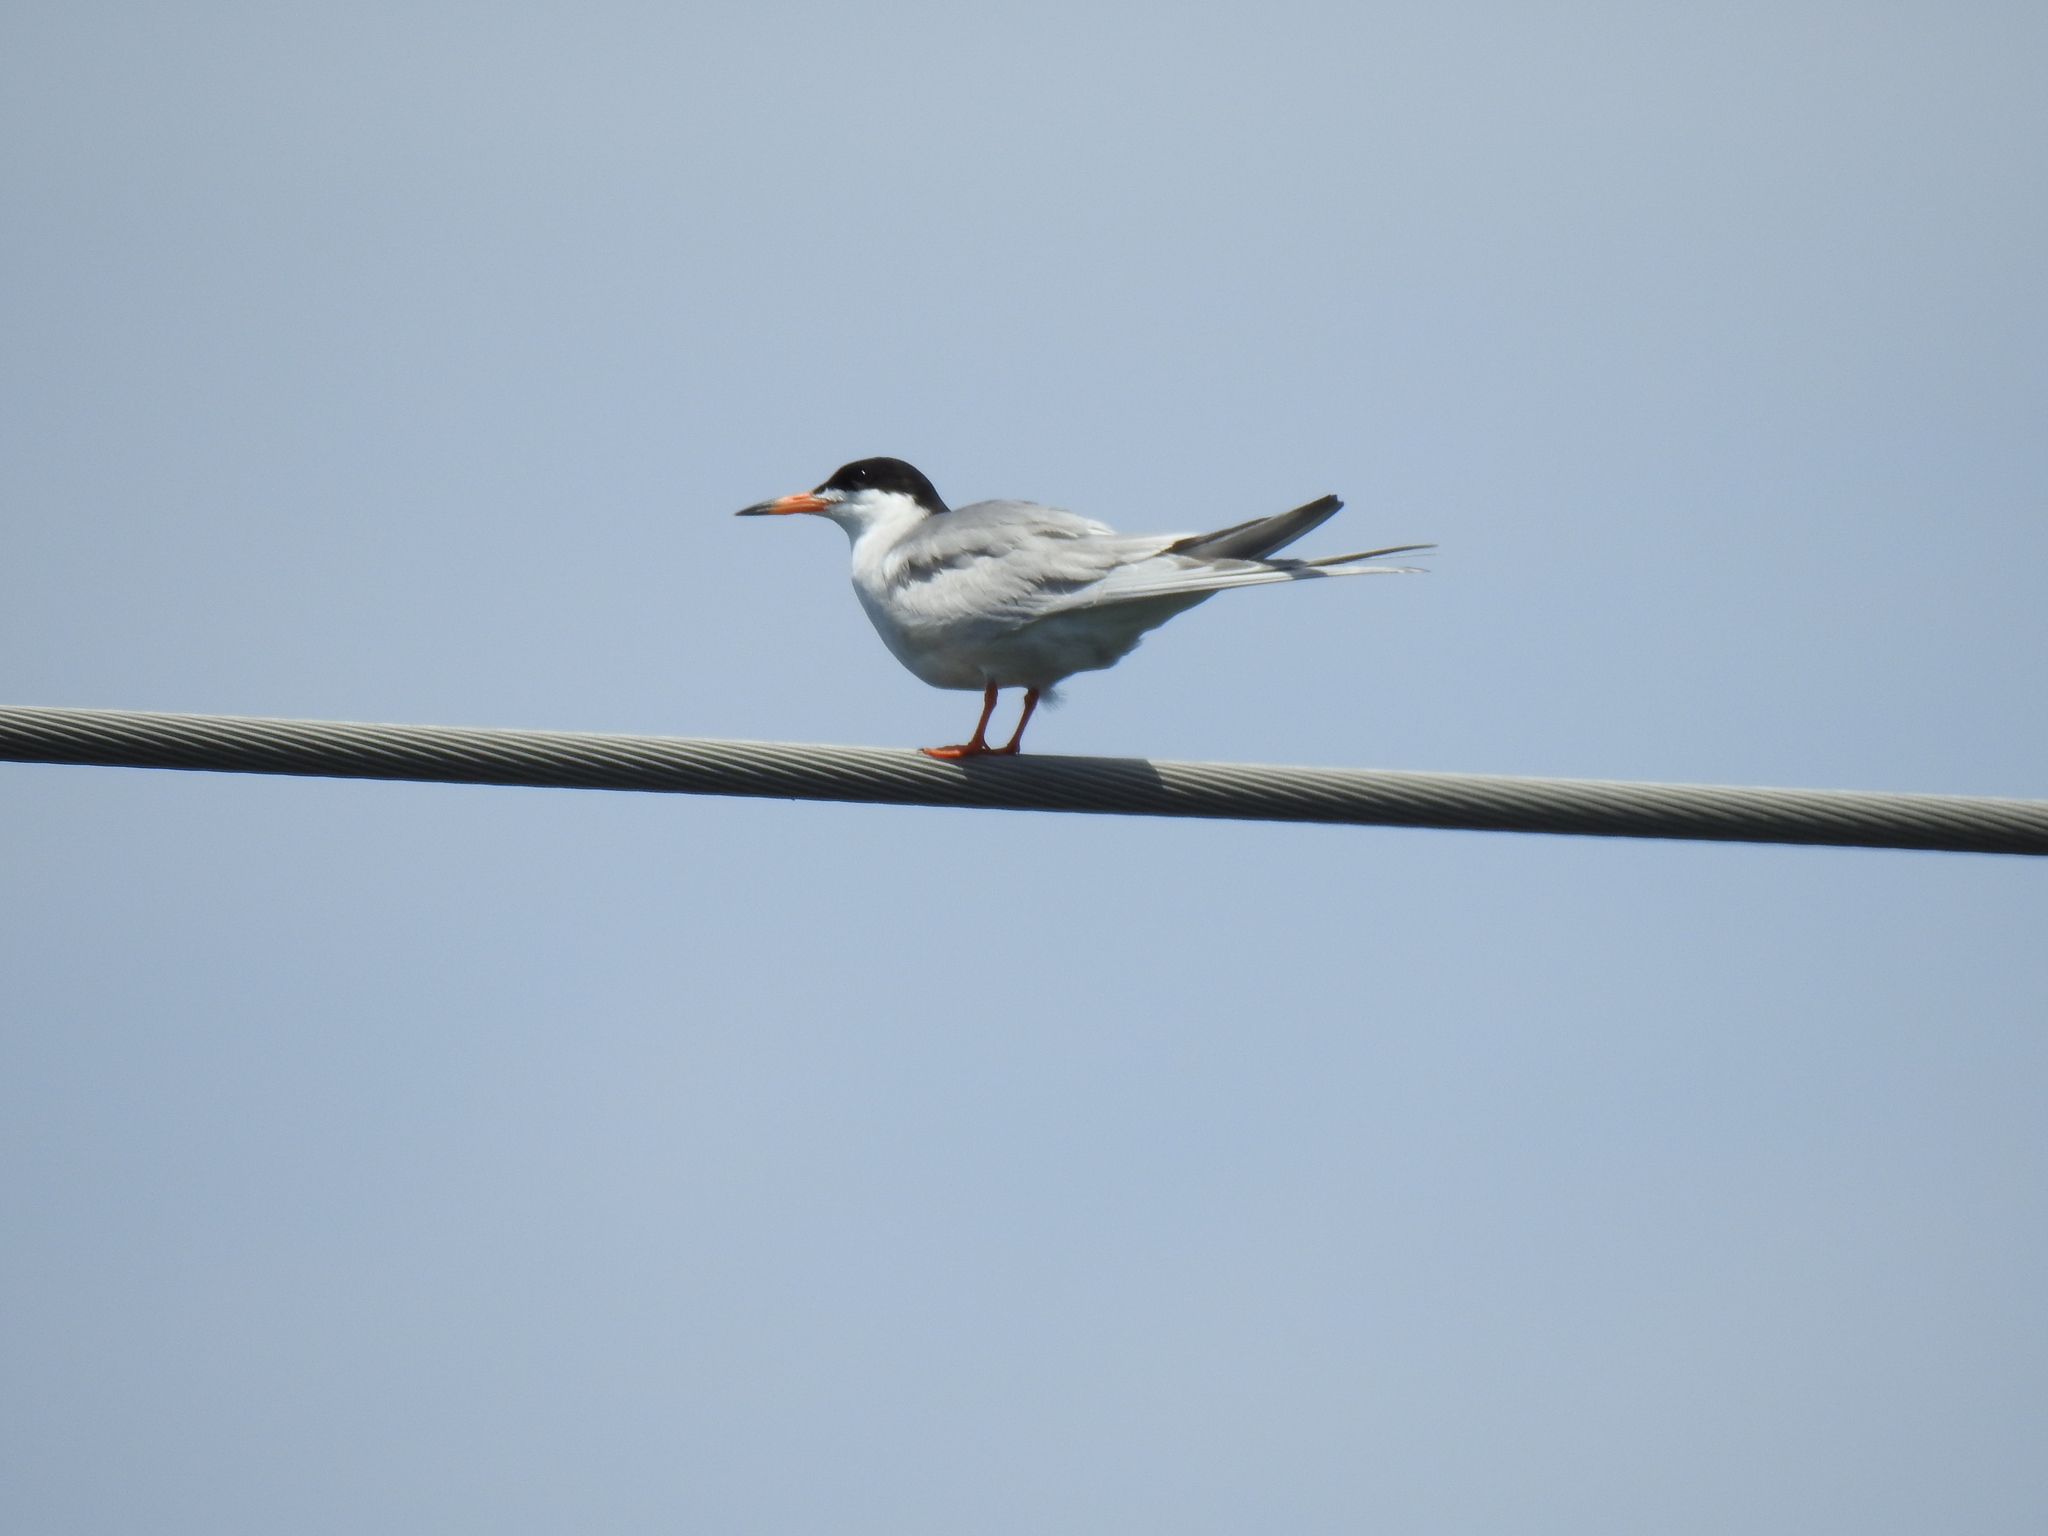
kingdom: Animalia
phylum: Chordata
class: Aves
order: Charadriiformes
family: Laridae
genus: Sterna
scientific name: Sterna forsteri
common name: Forster's tern
